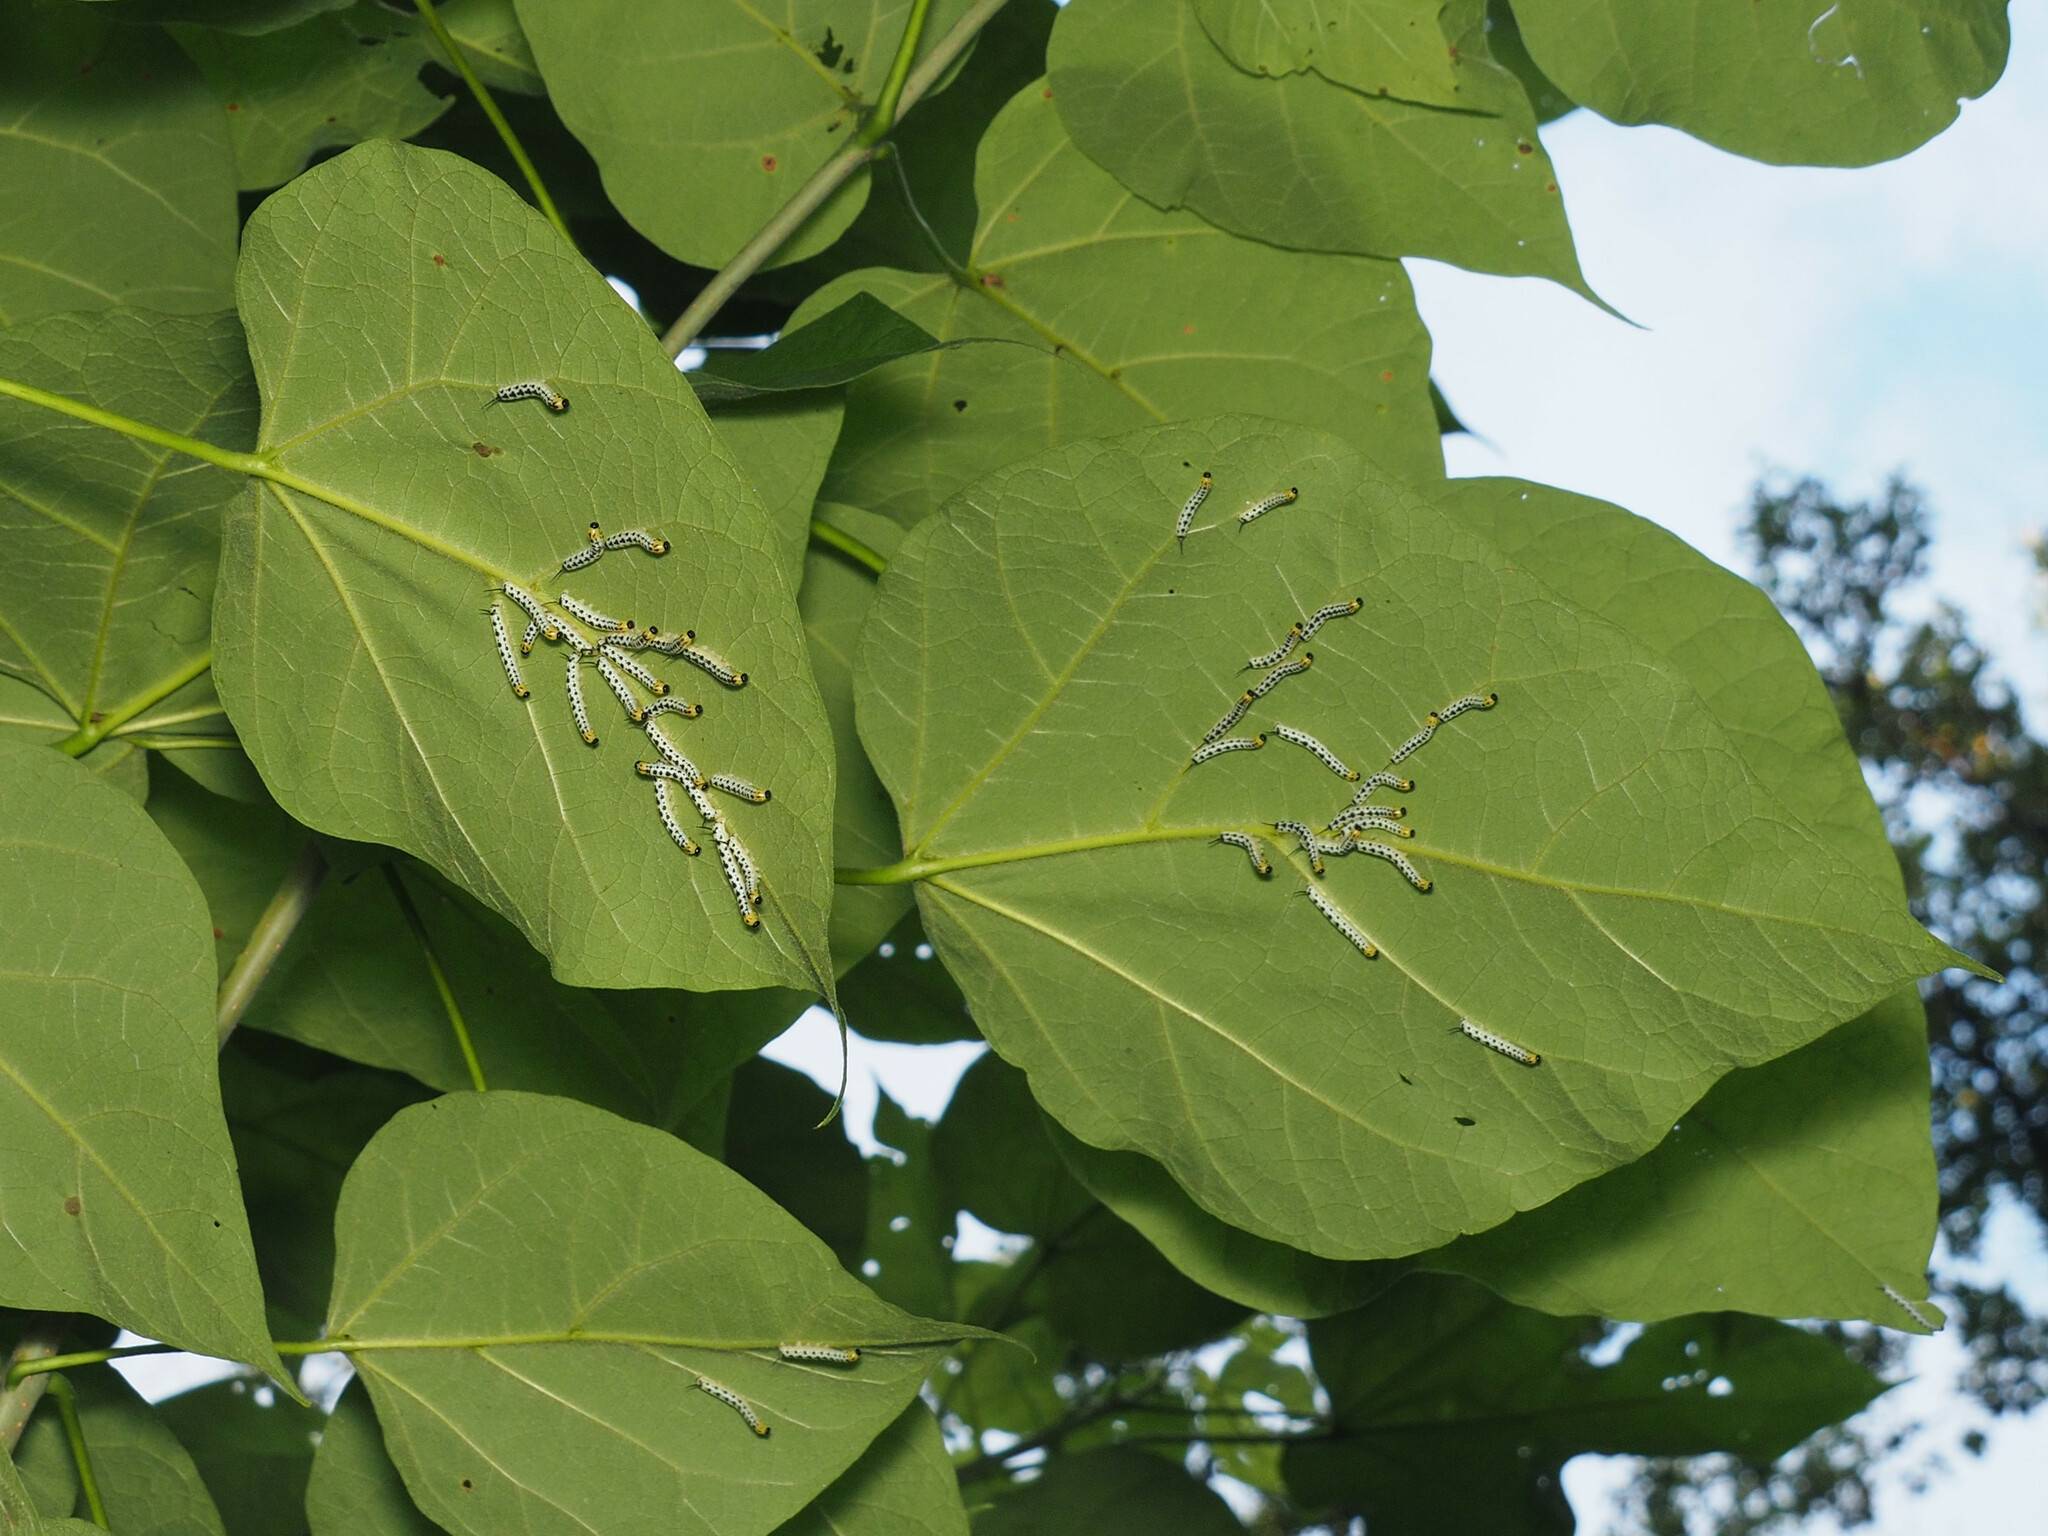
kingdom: Animalia
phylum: Arthropoda
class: Insecta
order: Lepidoptera
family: Sphingidae
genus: Ceratomia
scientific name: Ceratomia catalpae
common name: Catalpa hornworm
